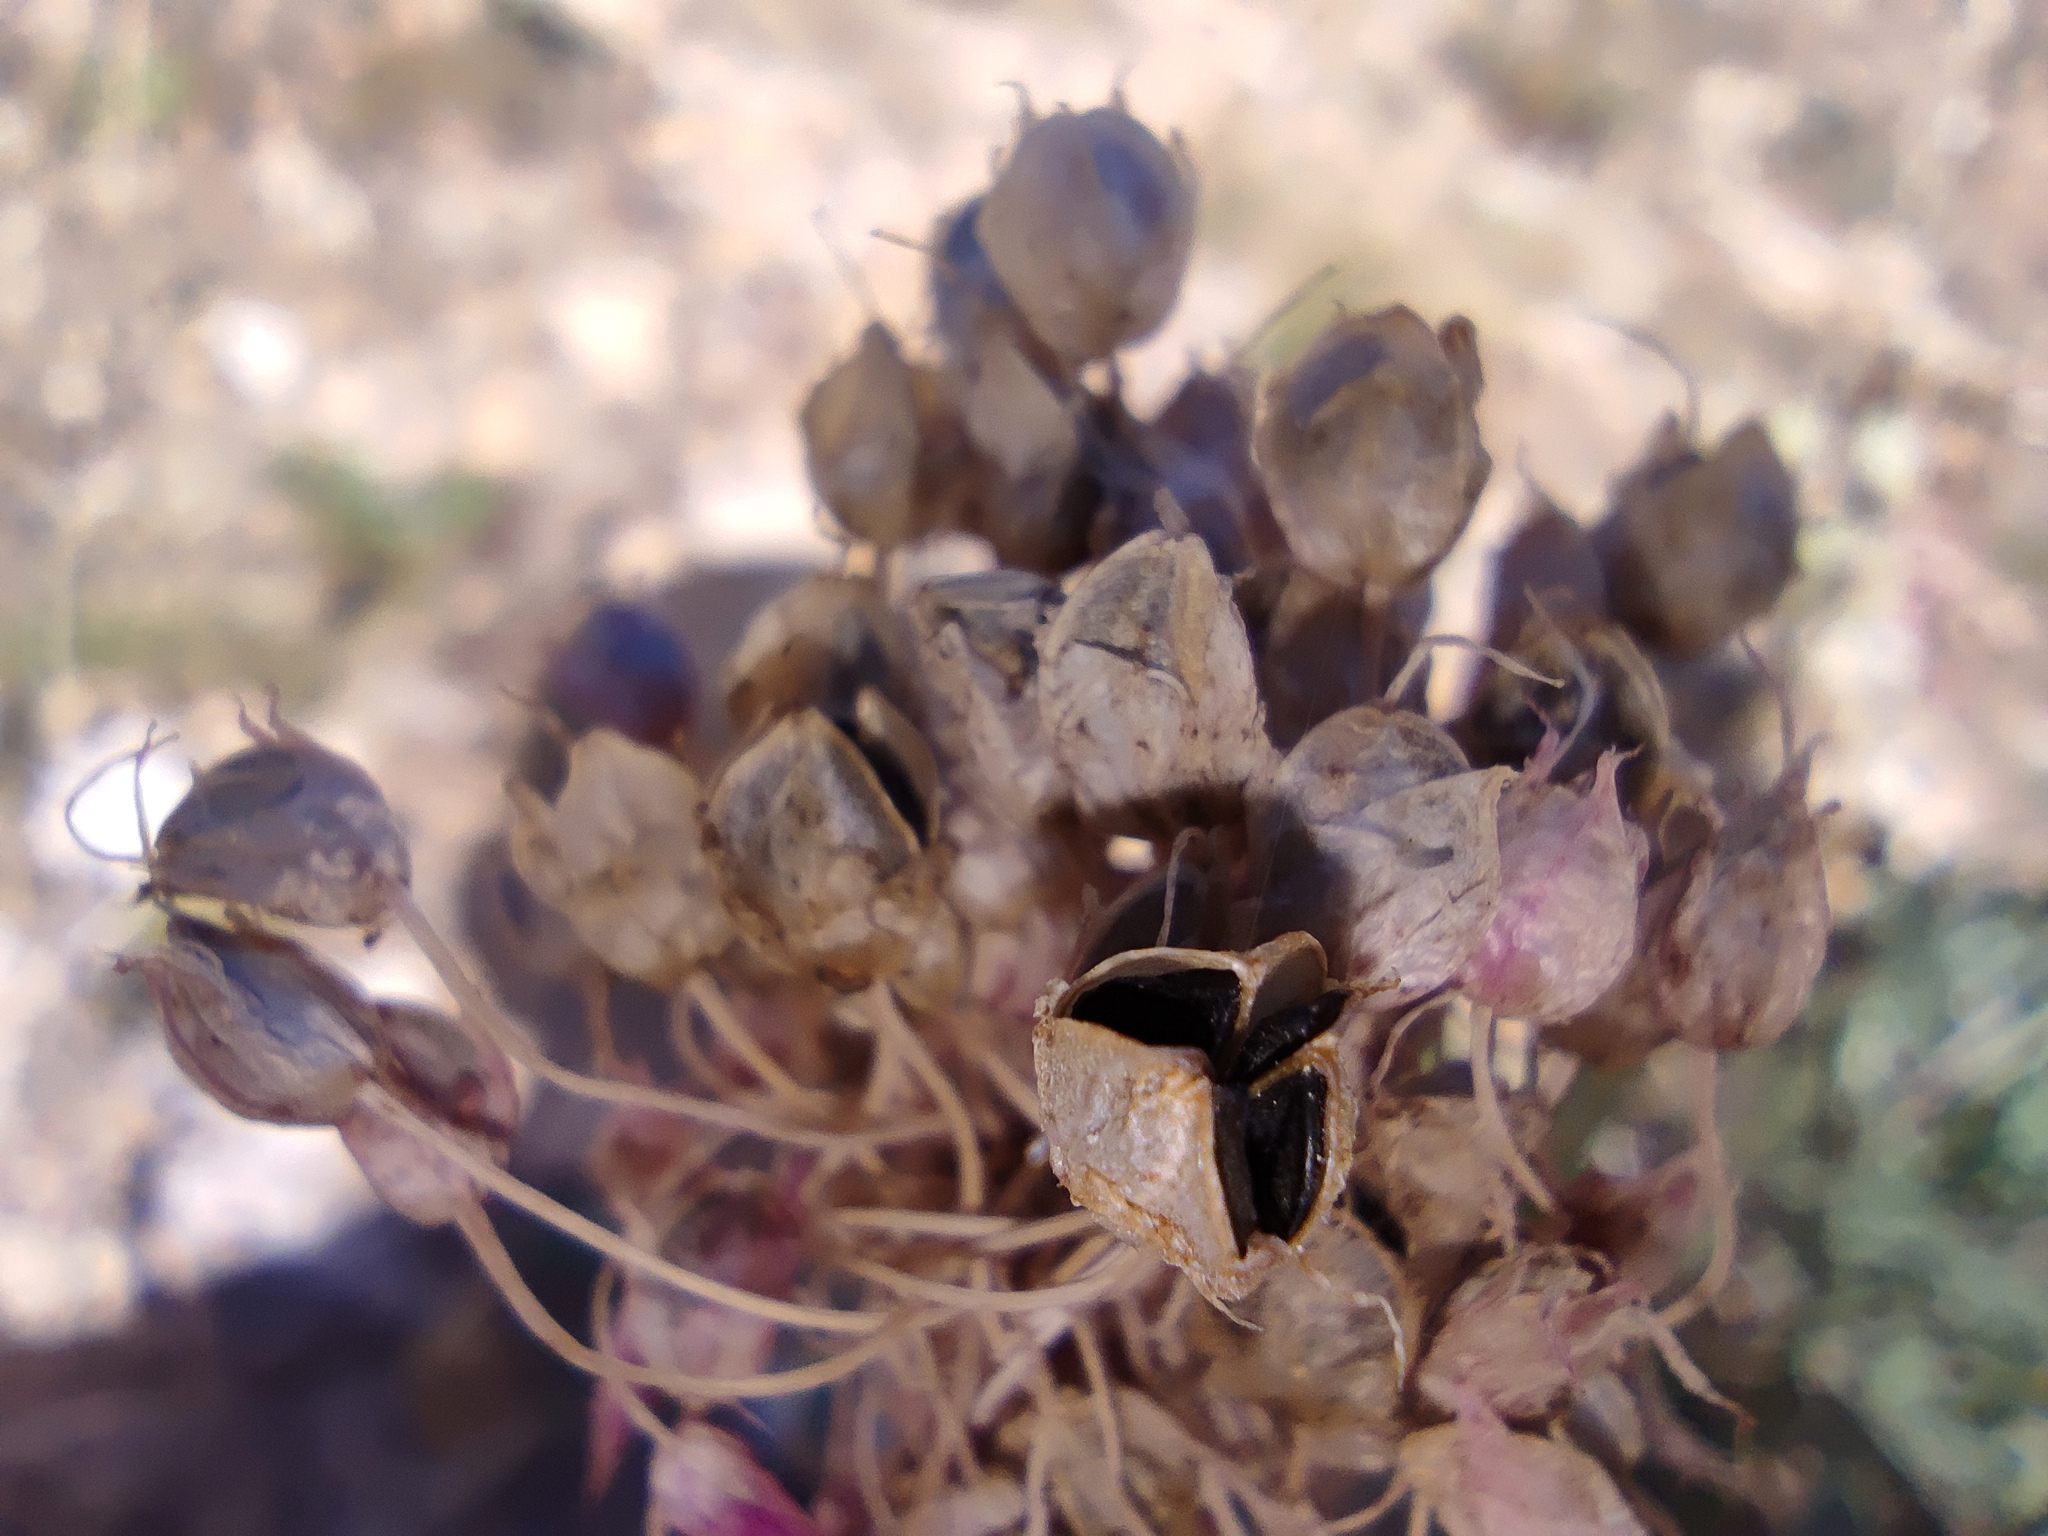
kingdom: Plantae
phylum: Tracheophyta
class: Liliopsida
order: Asparagales
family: Amaryllidaceae
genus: Allium
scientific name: Allium cretaceum
